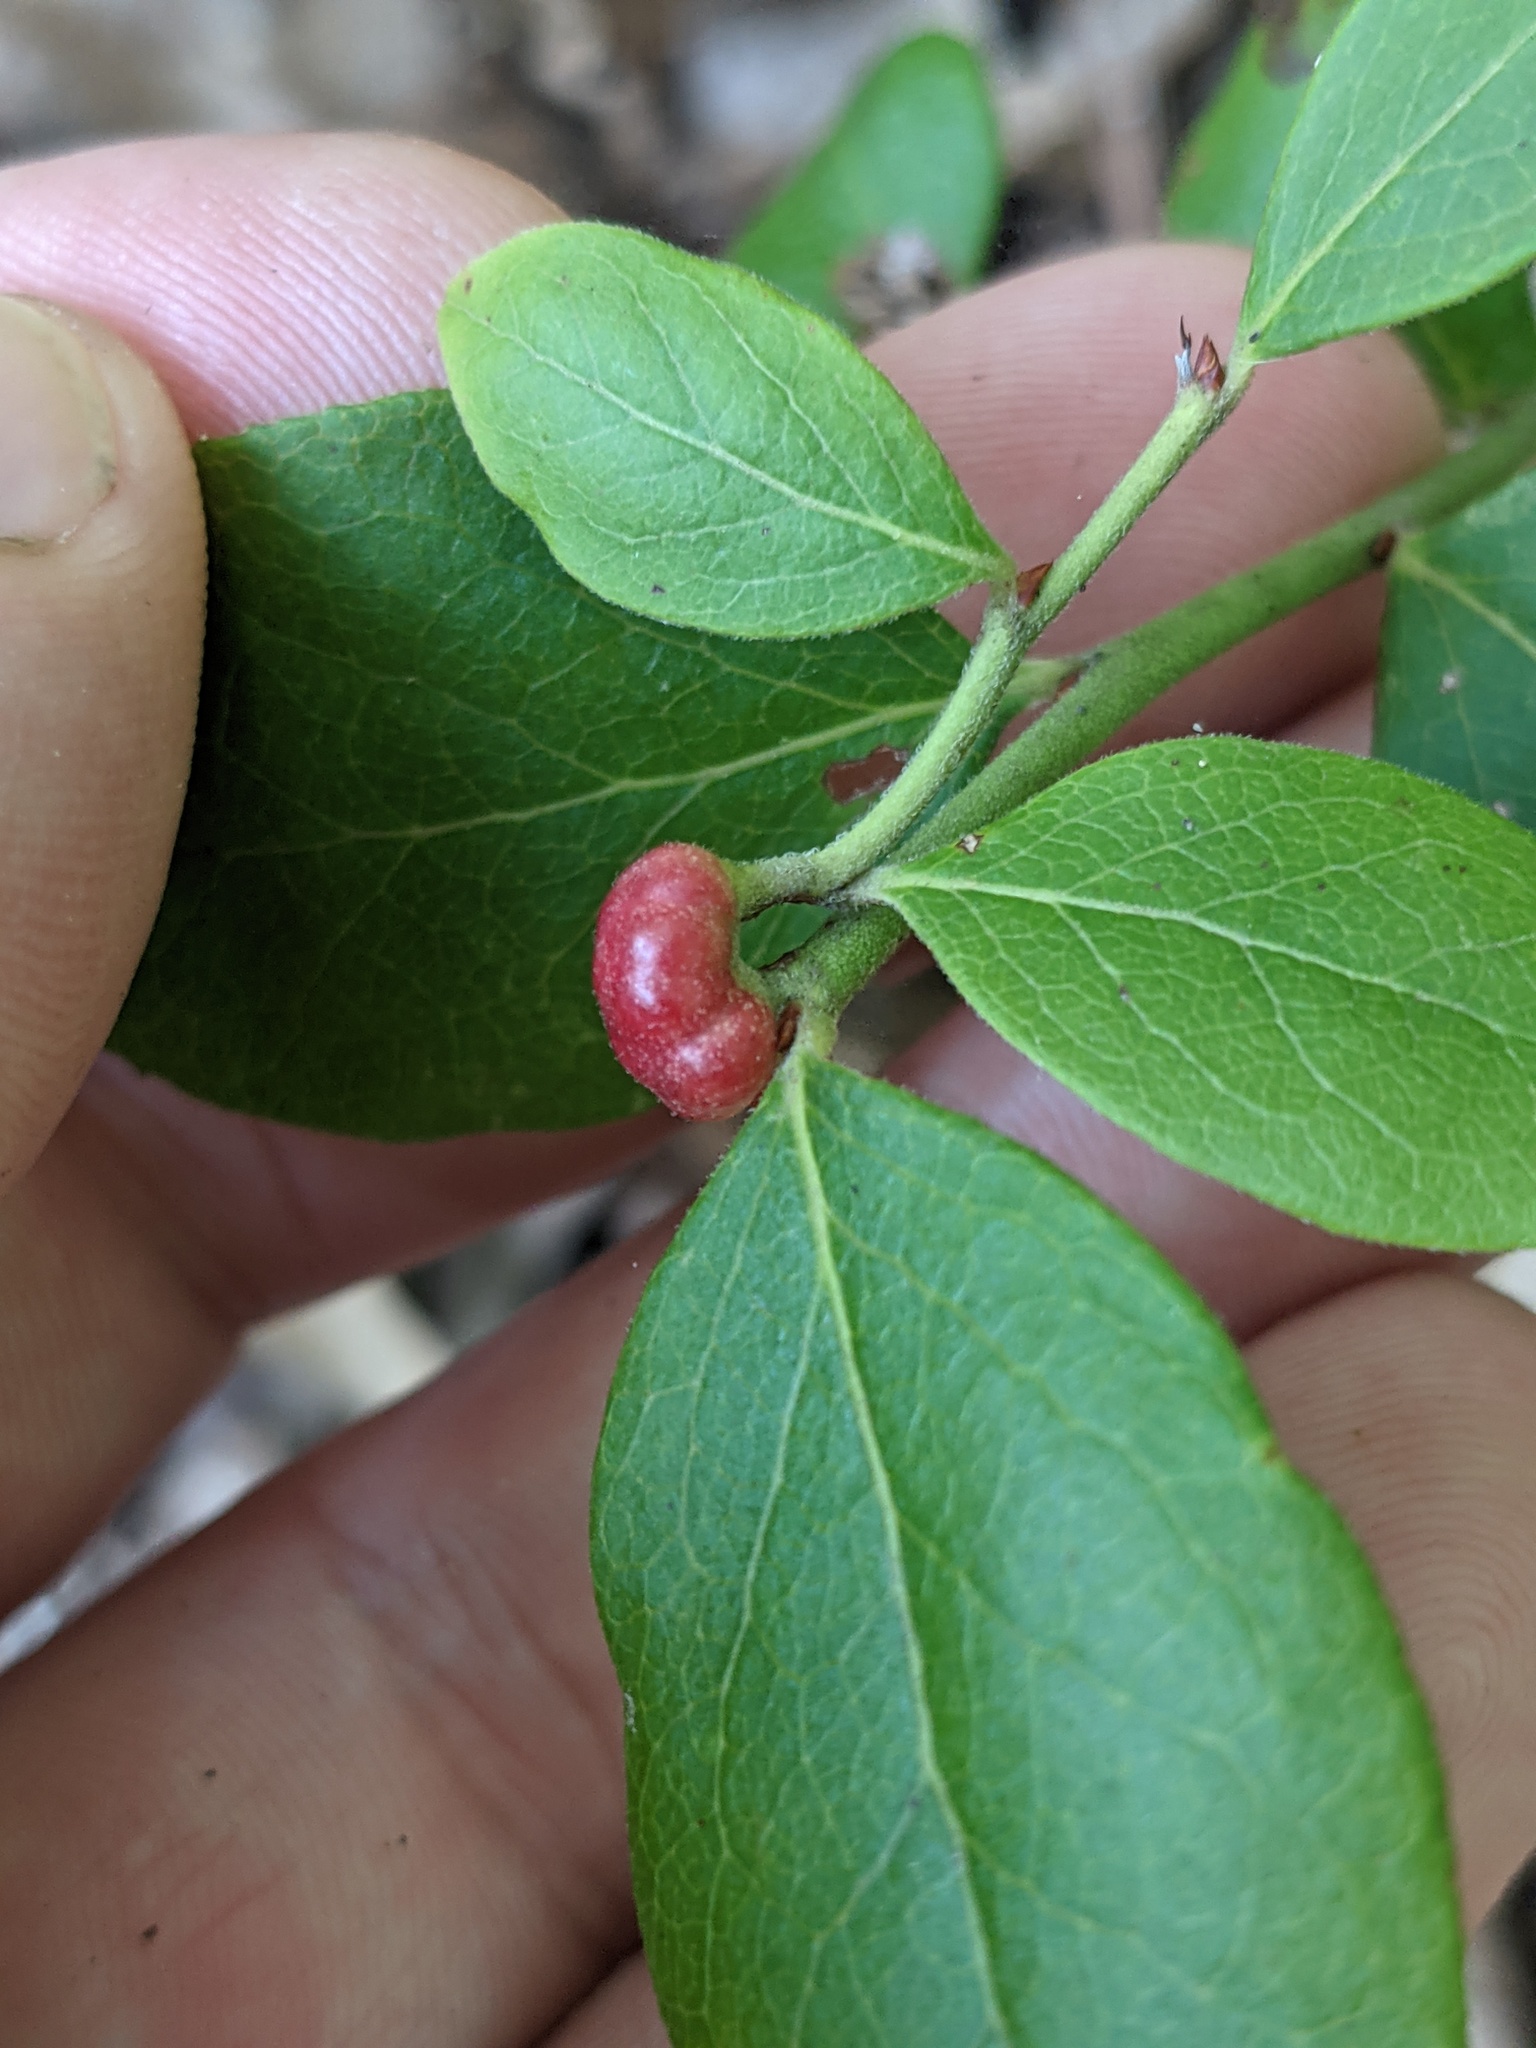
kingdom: Animalia
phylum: Arthropoda
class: Insecta
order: Hymenoptera
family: Pteromalidae
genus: Hemadas
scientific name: Hemadas nubilipennis
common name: Blueberry stem gall wasp
